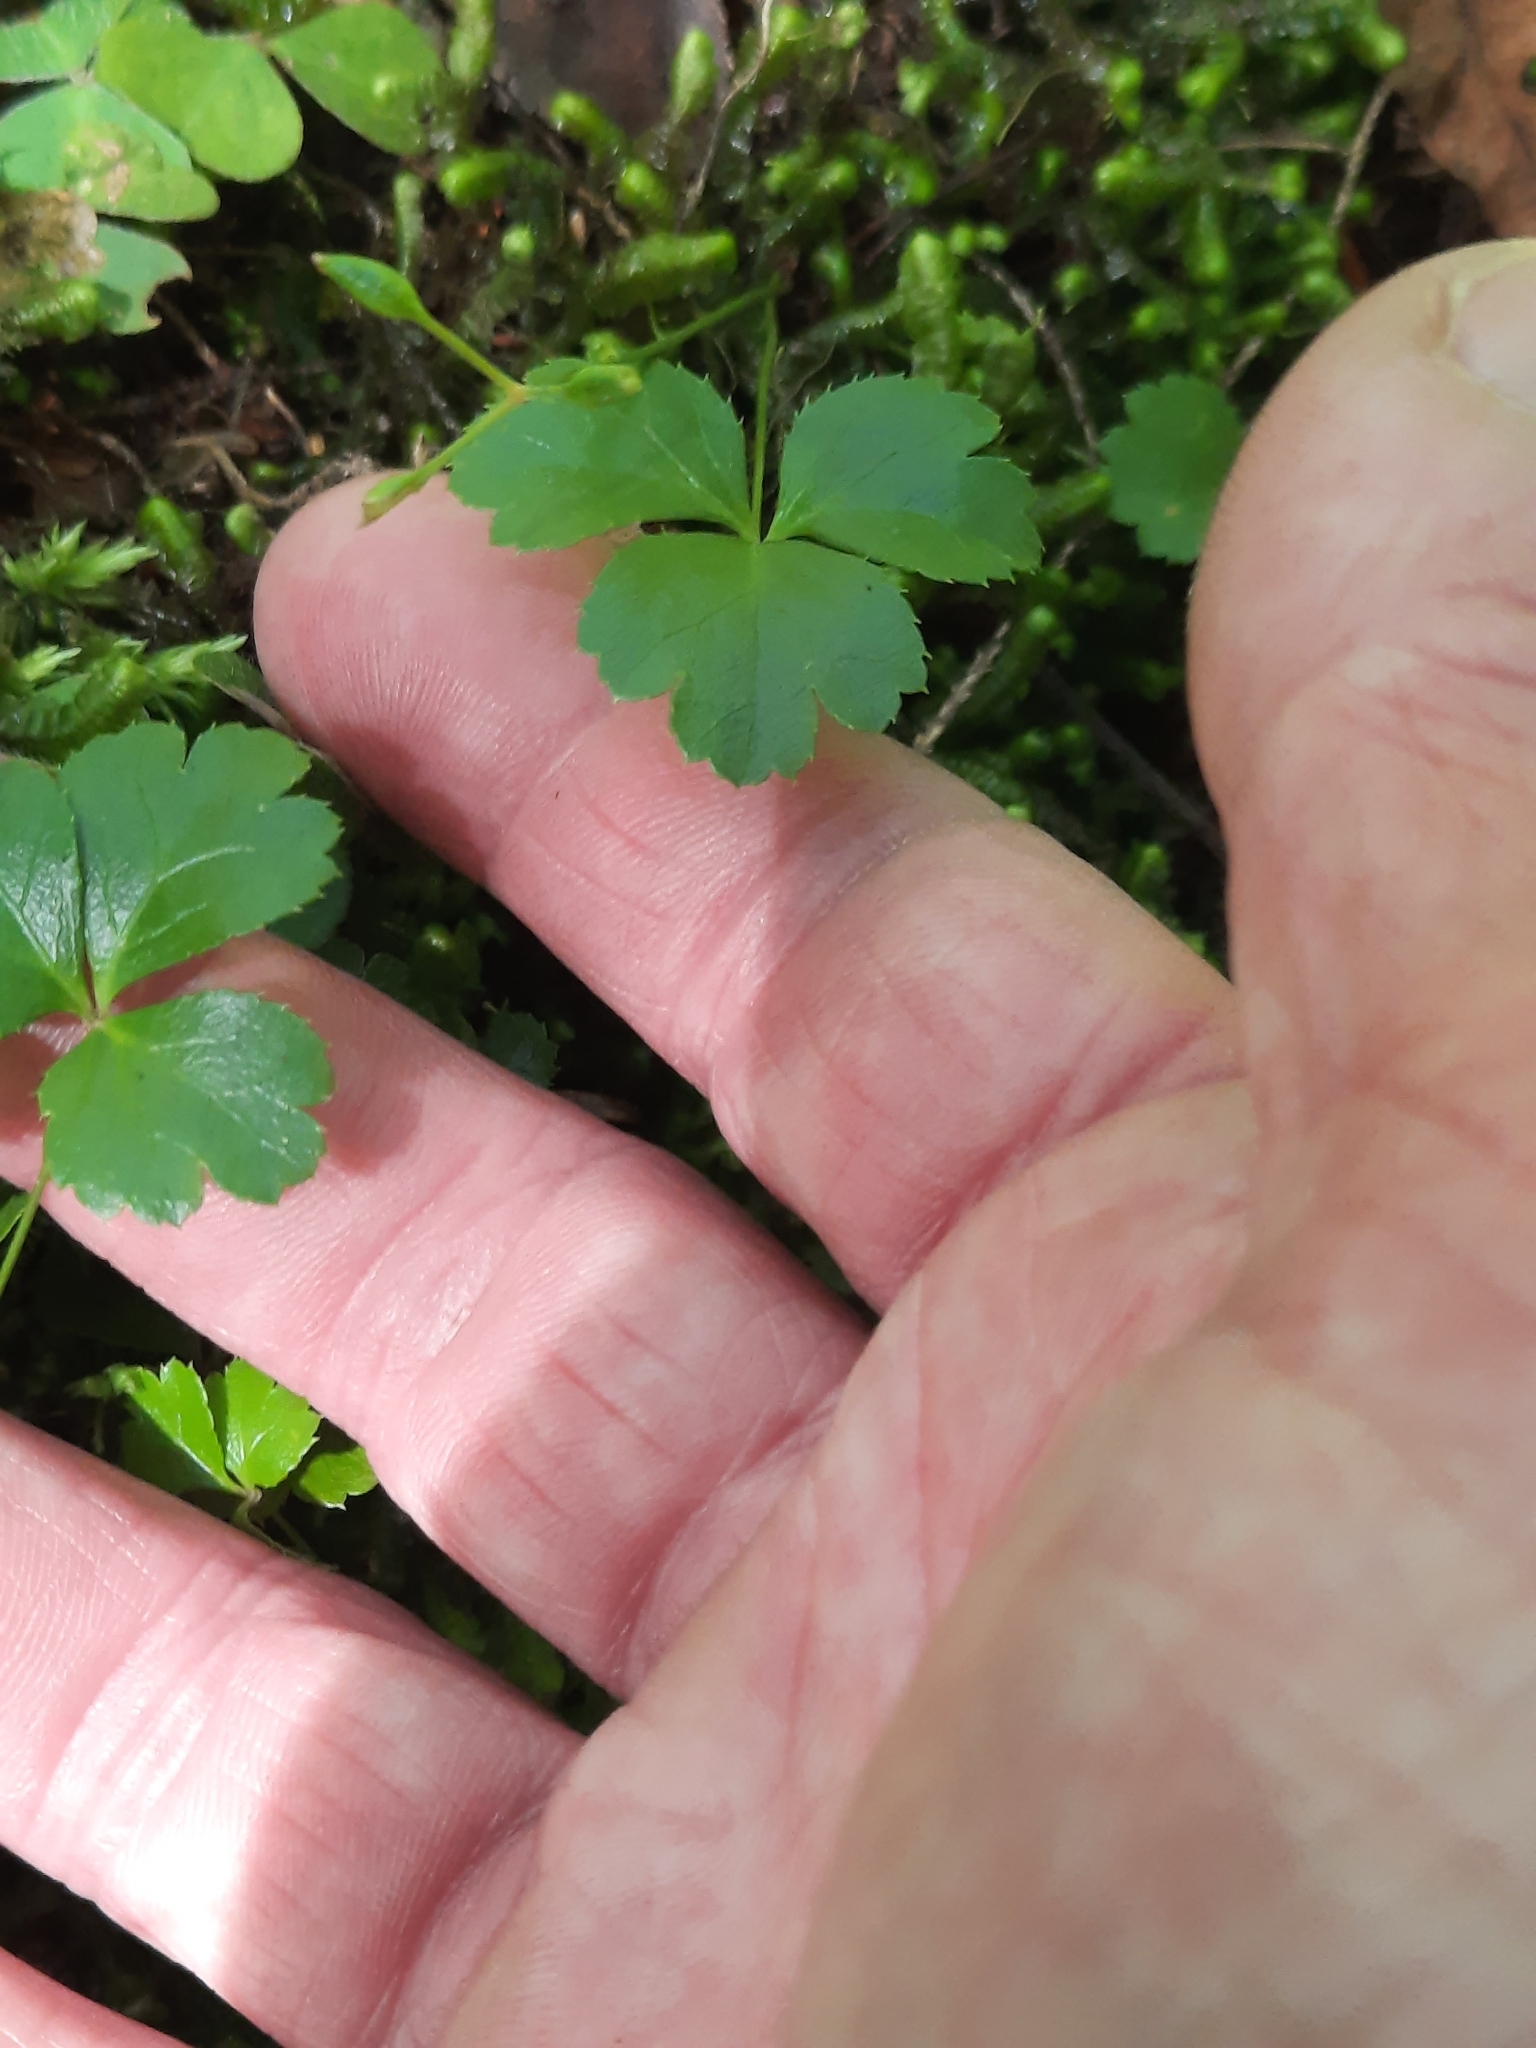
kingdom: Plantae
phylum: Tracheophyta
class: Magnoliopsida
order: Ranunculales
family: Ranunculaceae
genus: Coptis
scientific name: Coptis trifolia
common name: Canker-root
